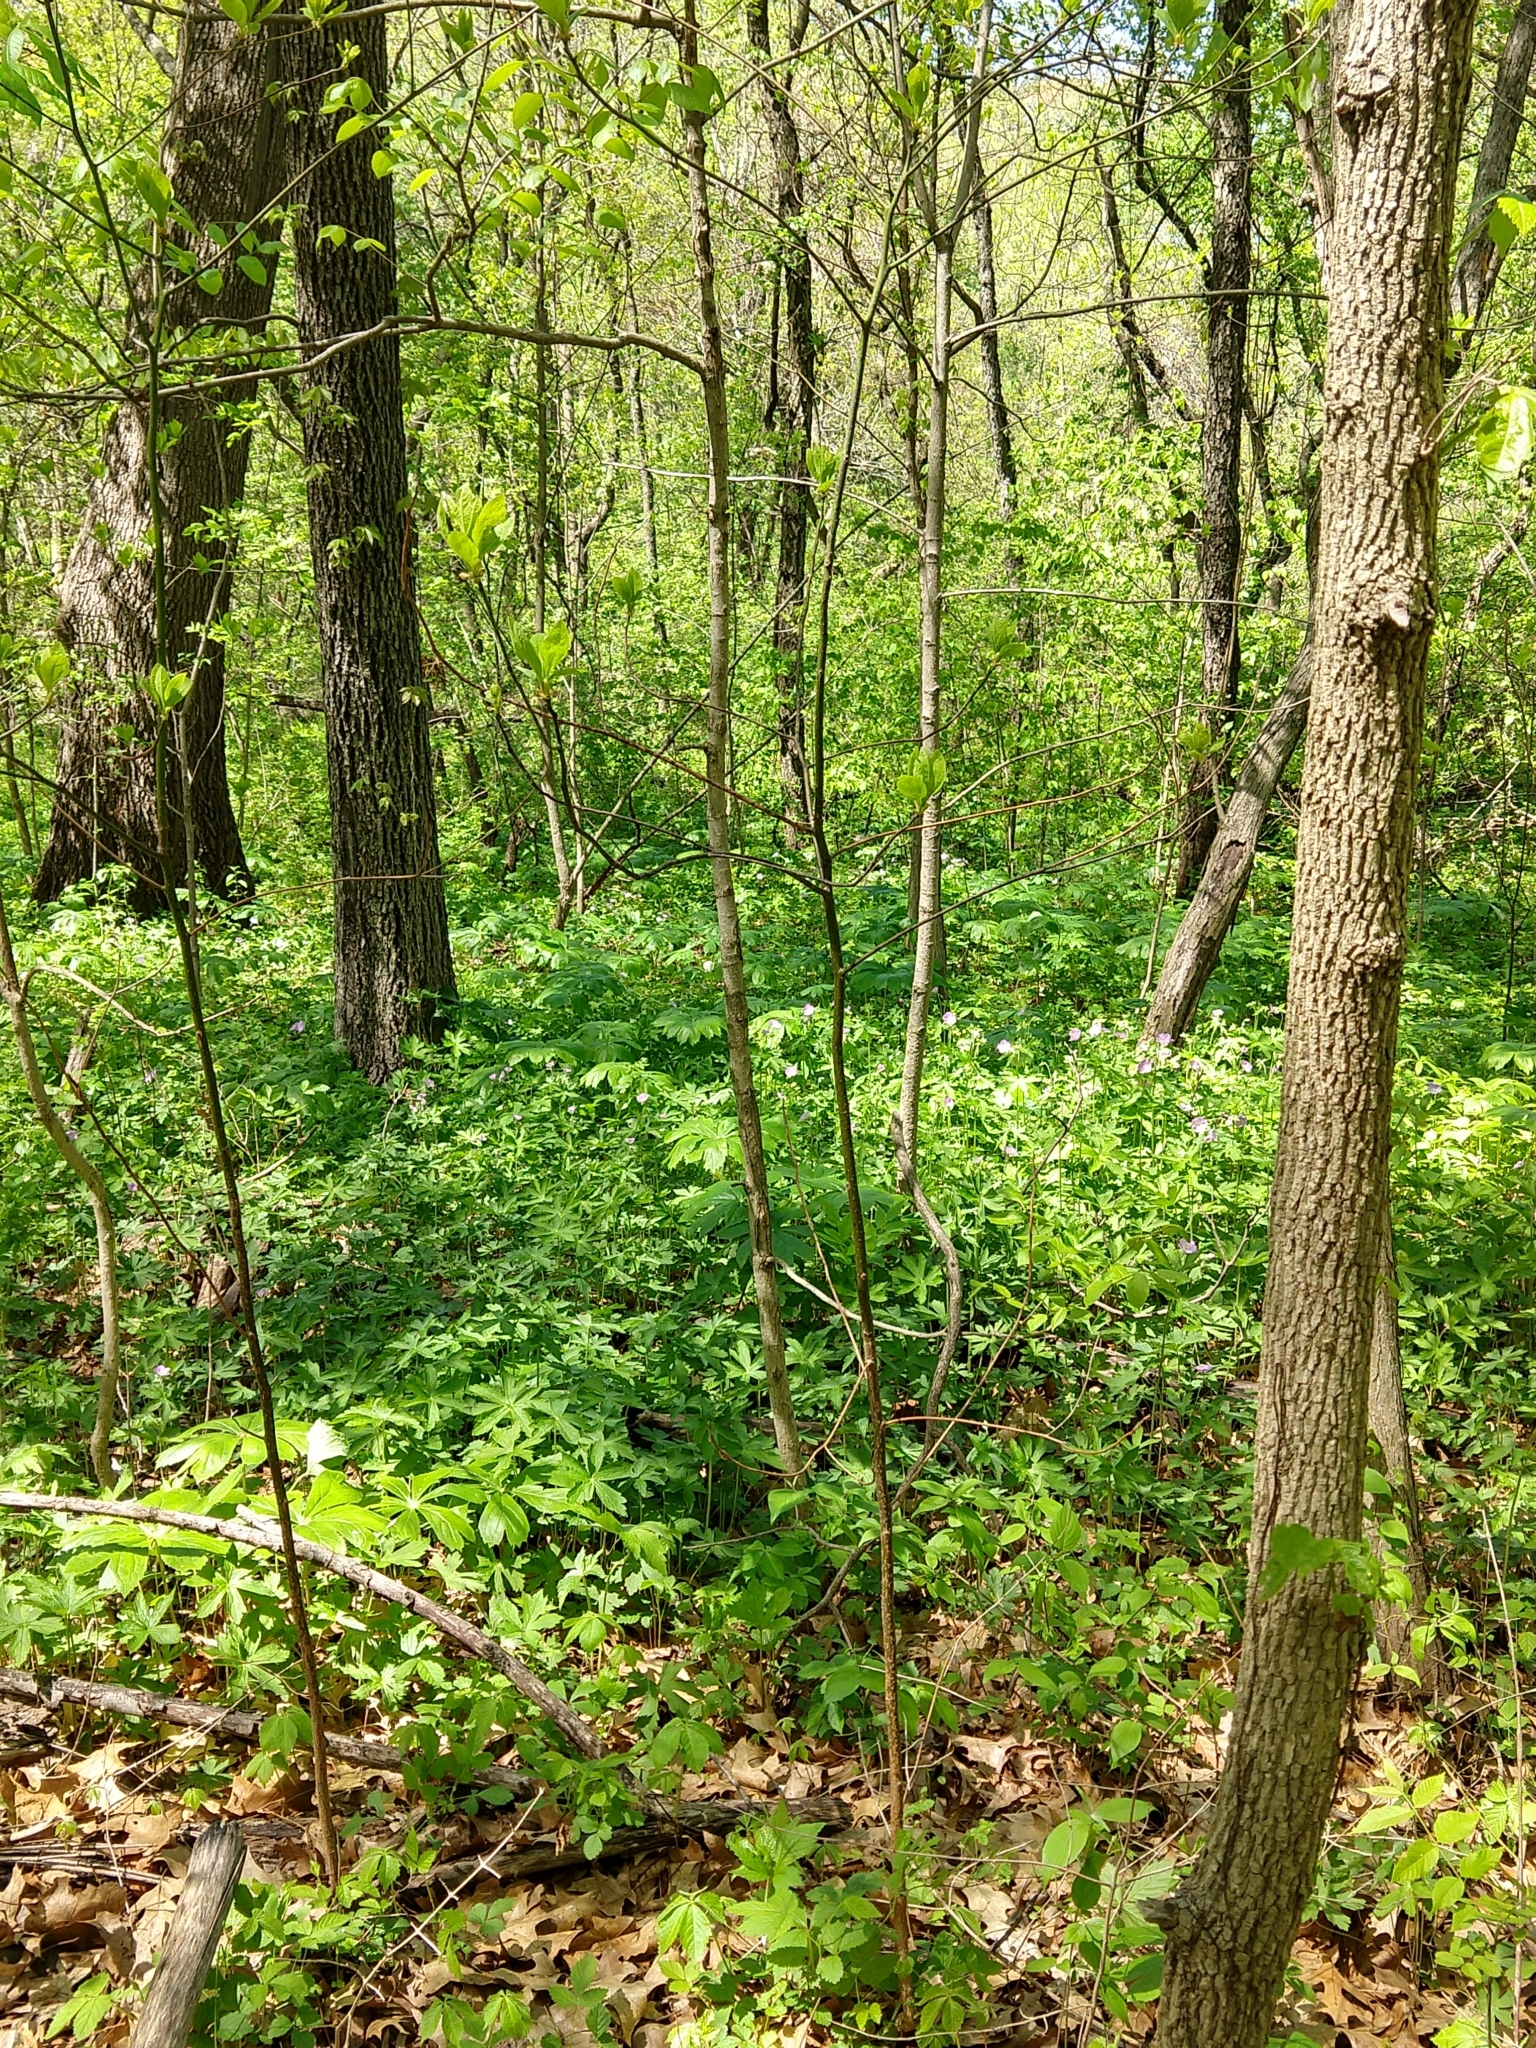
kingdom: Plantae
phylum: Tracheophyta
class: Magnoliopsida
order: Geraniales
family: Geraniaceae
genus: Geranium
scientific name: Geranium maculatum
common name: Spotted geranium
